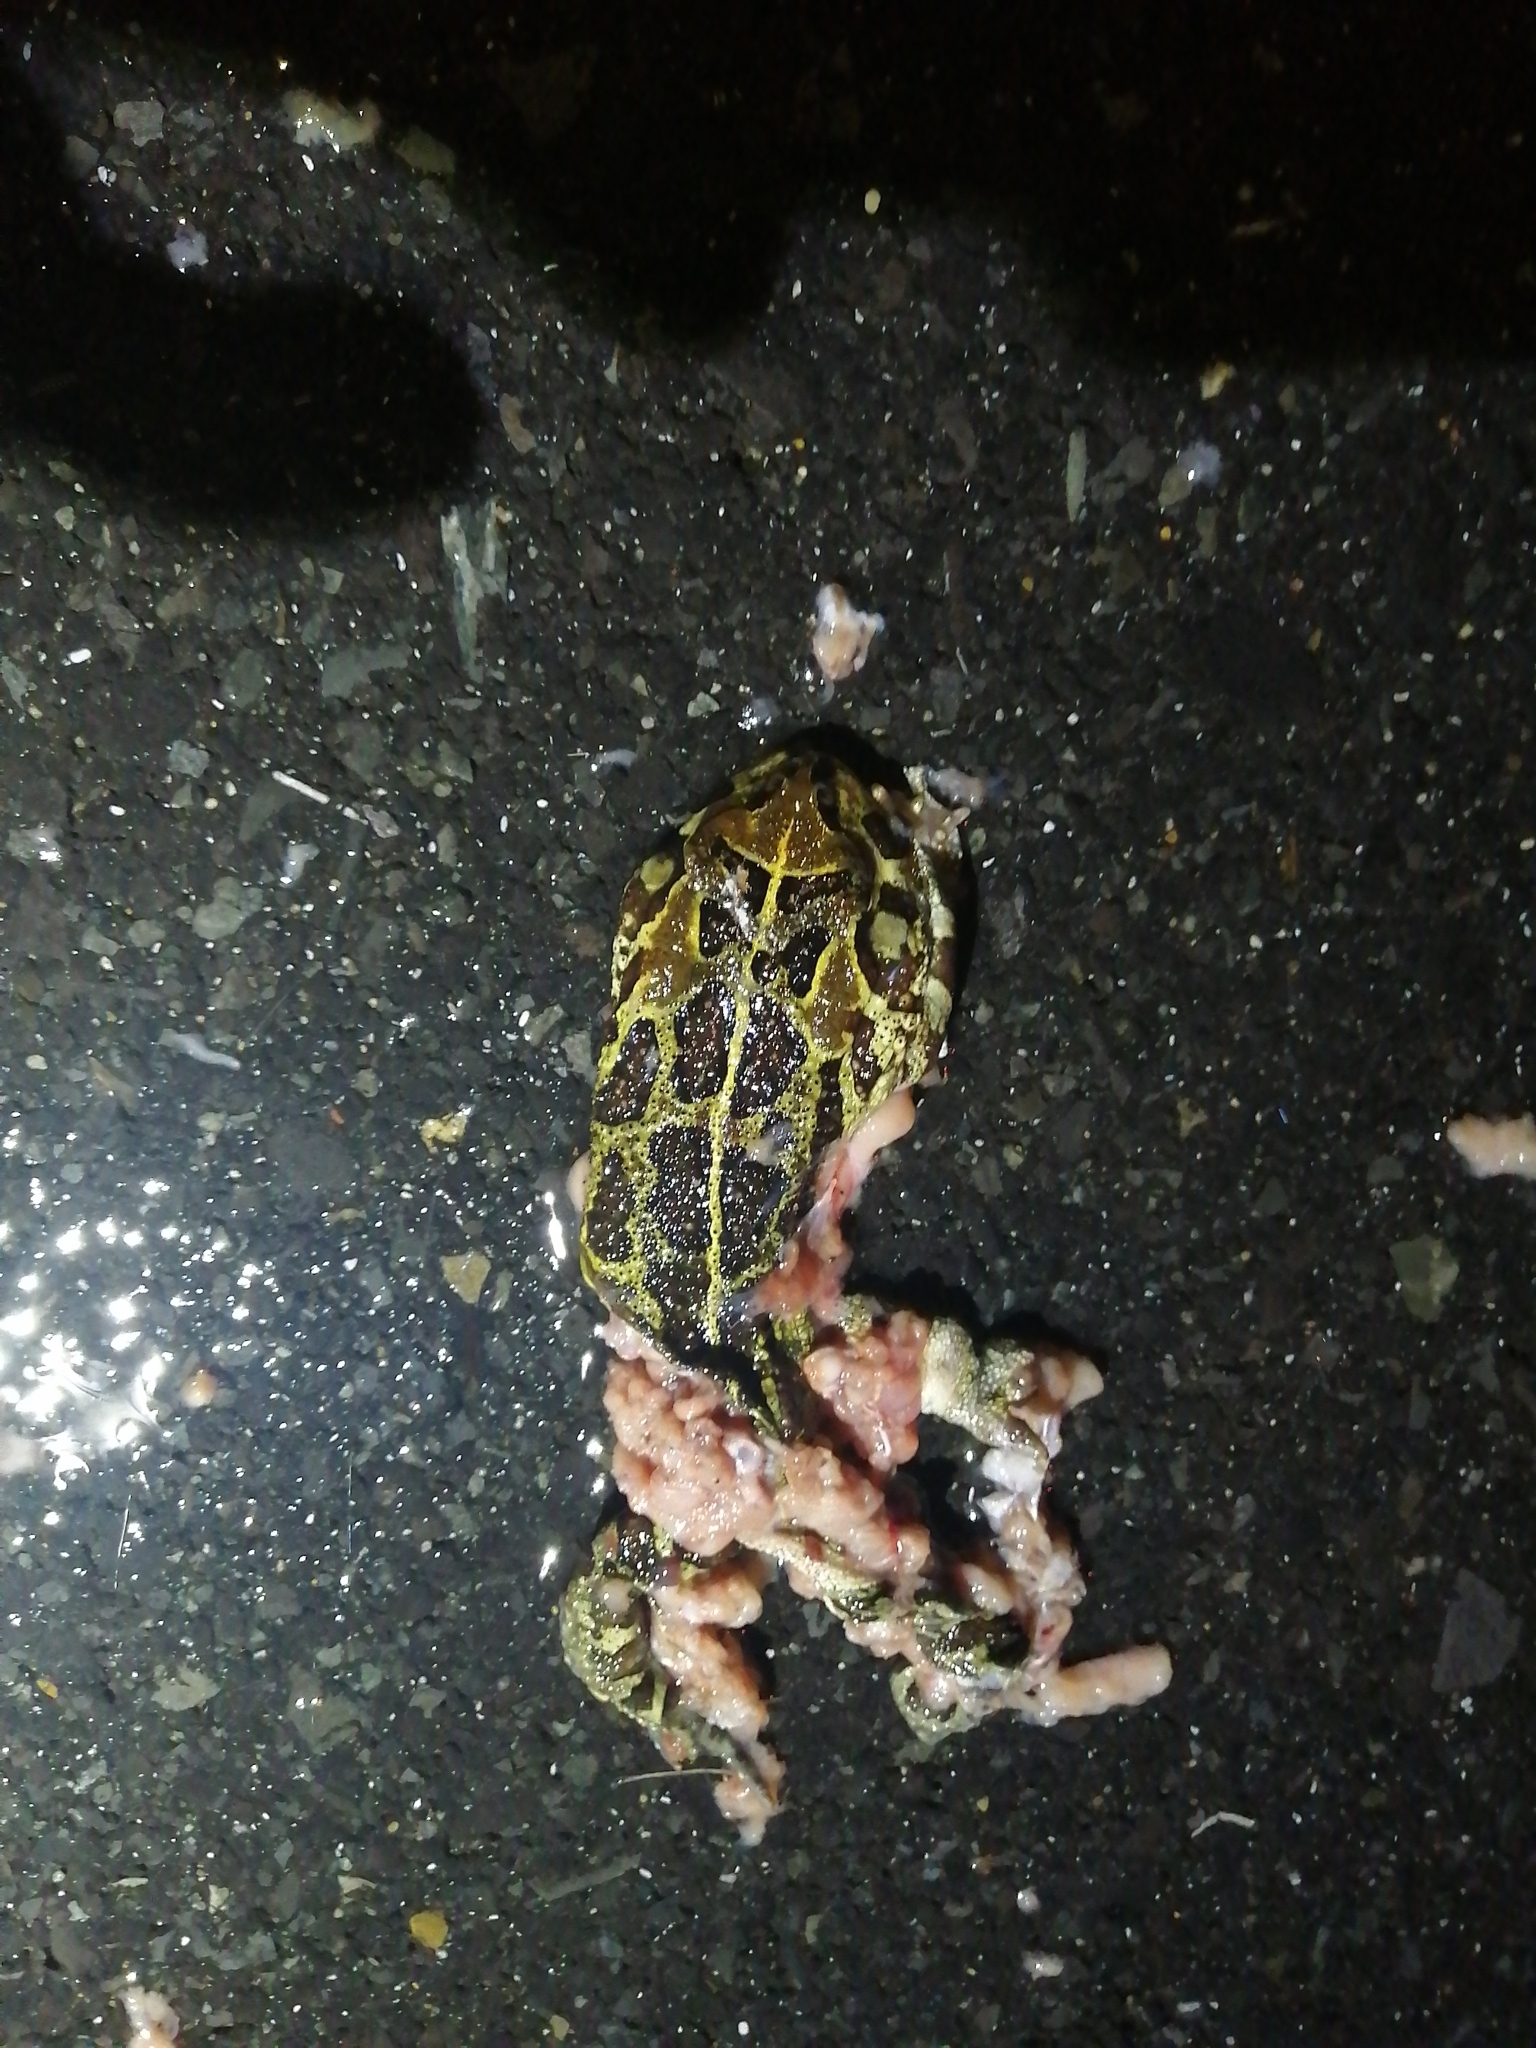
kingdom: Animalia
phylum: Chordata
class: Amphibia
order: Anura
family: Bufonidae
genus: Sclerophrys
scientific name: Sclerophrys pantherina
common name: Panther toad
